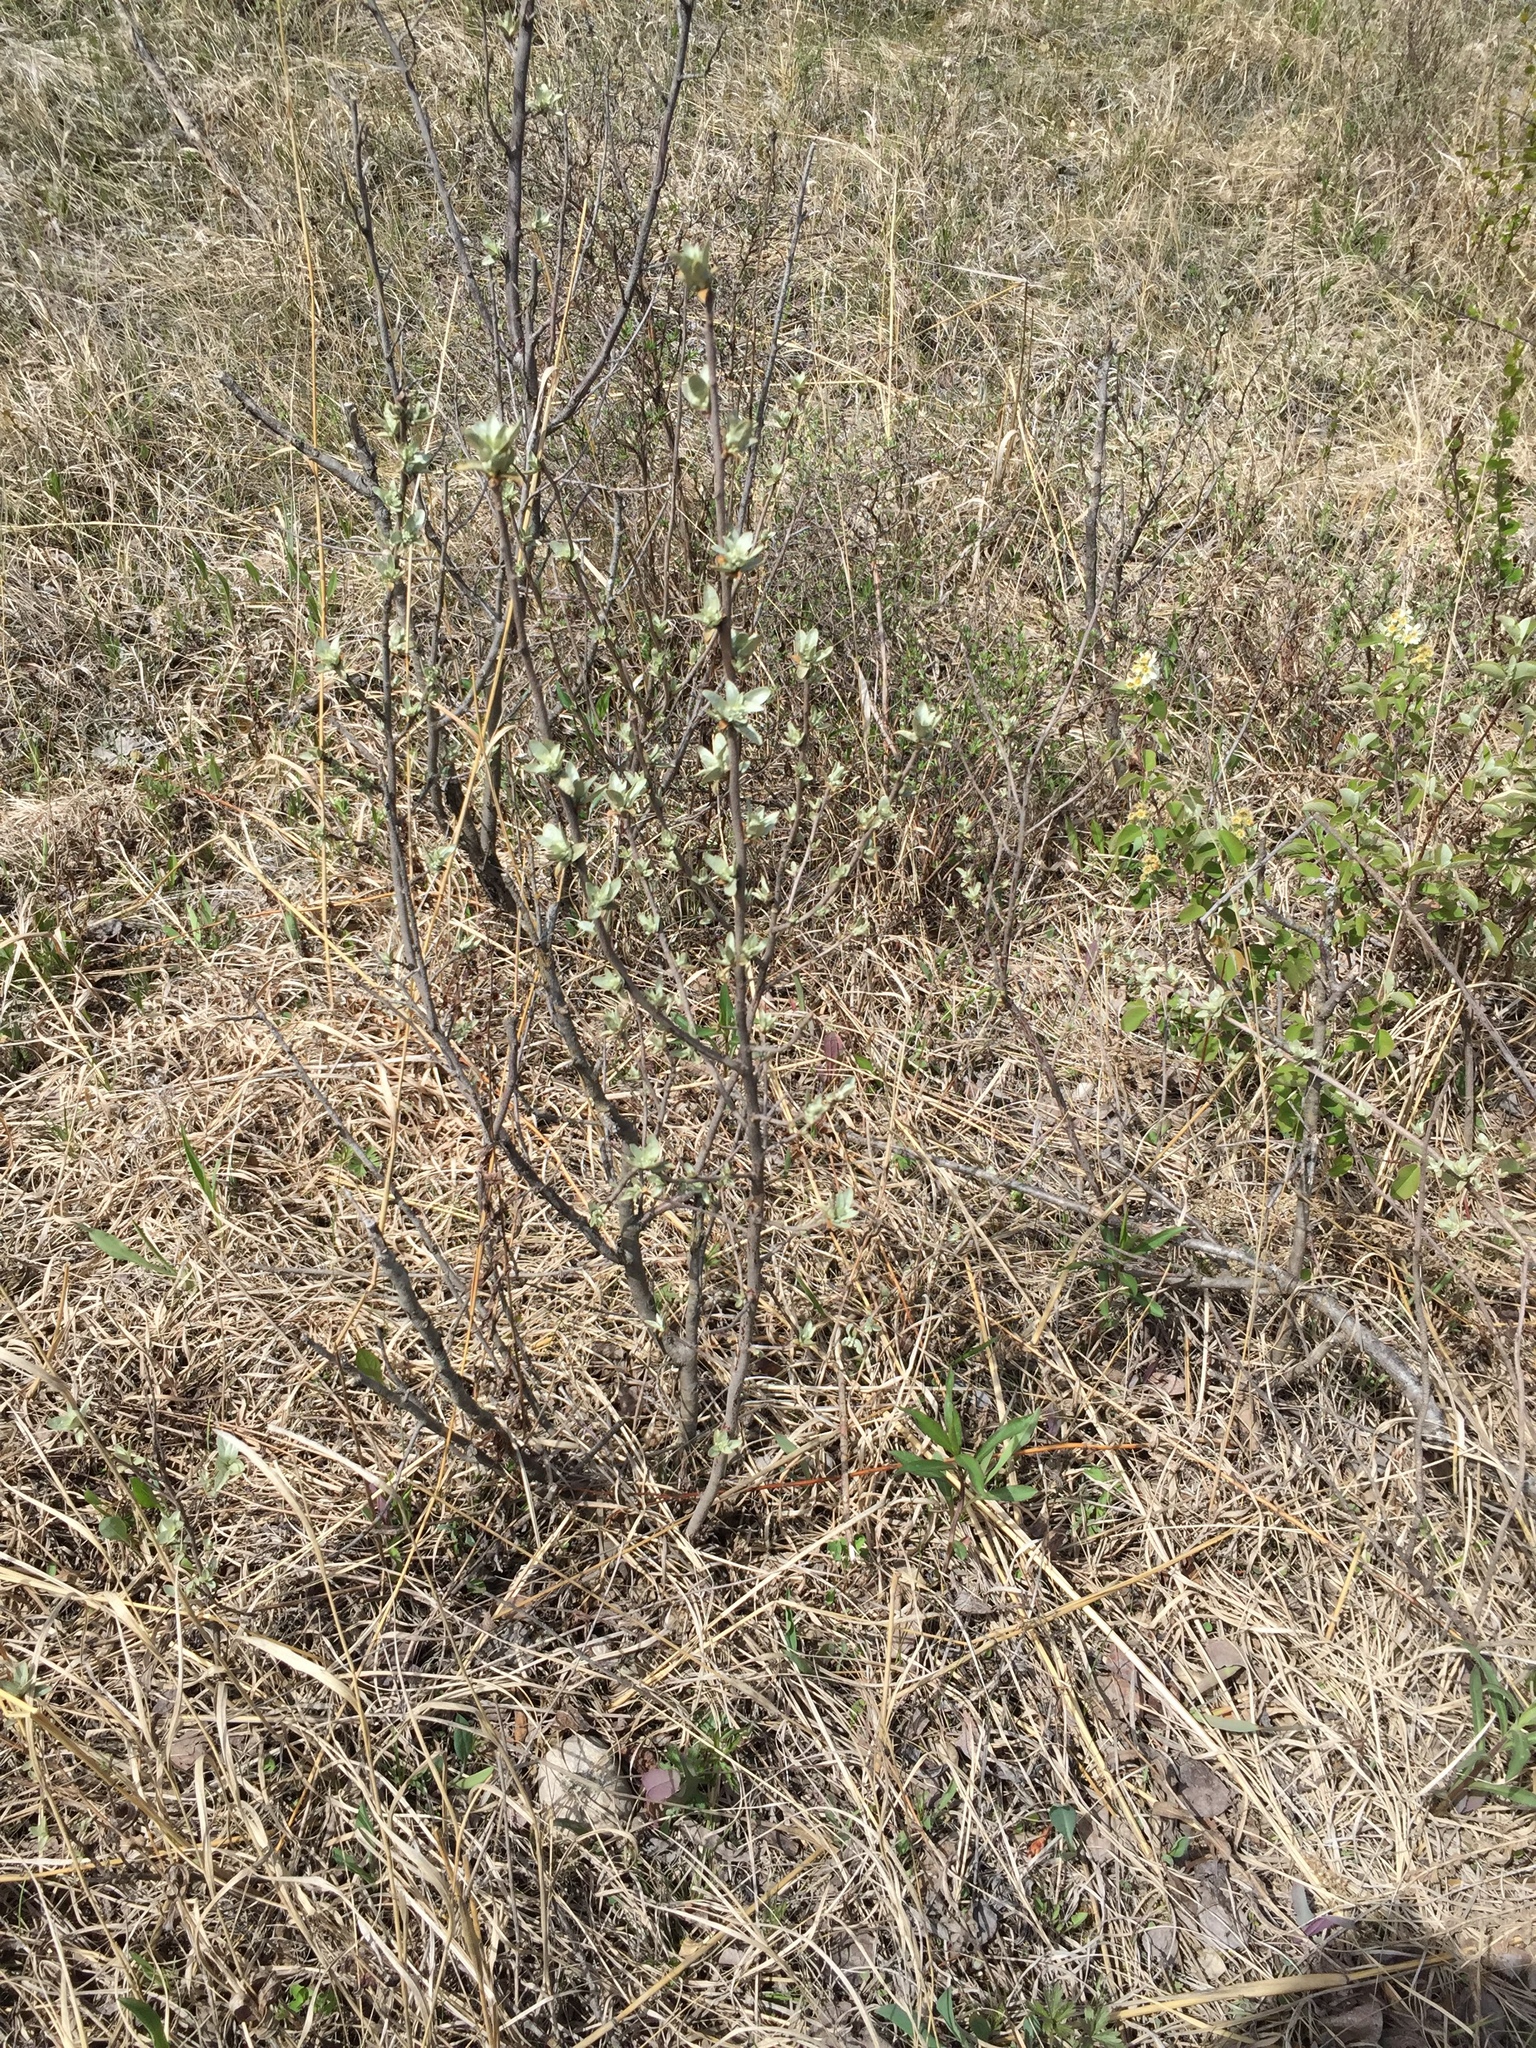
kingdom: Plantae
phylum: Tracheophyta
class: Magnoliopsida
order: Rosales
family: Elaeagnaceae
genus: Elaeagnus
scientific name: Elaeagnus commutata
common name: Silverberry
